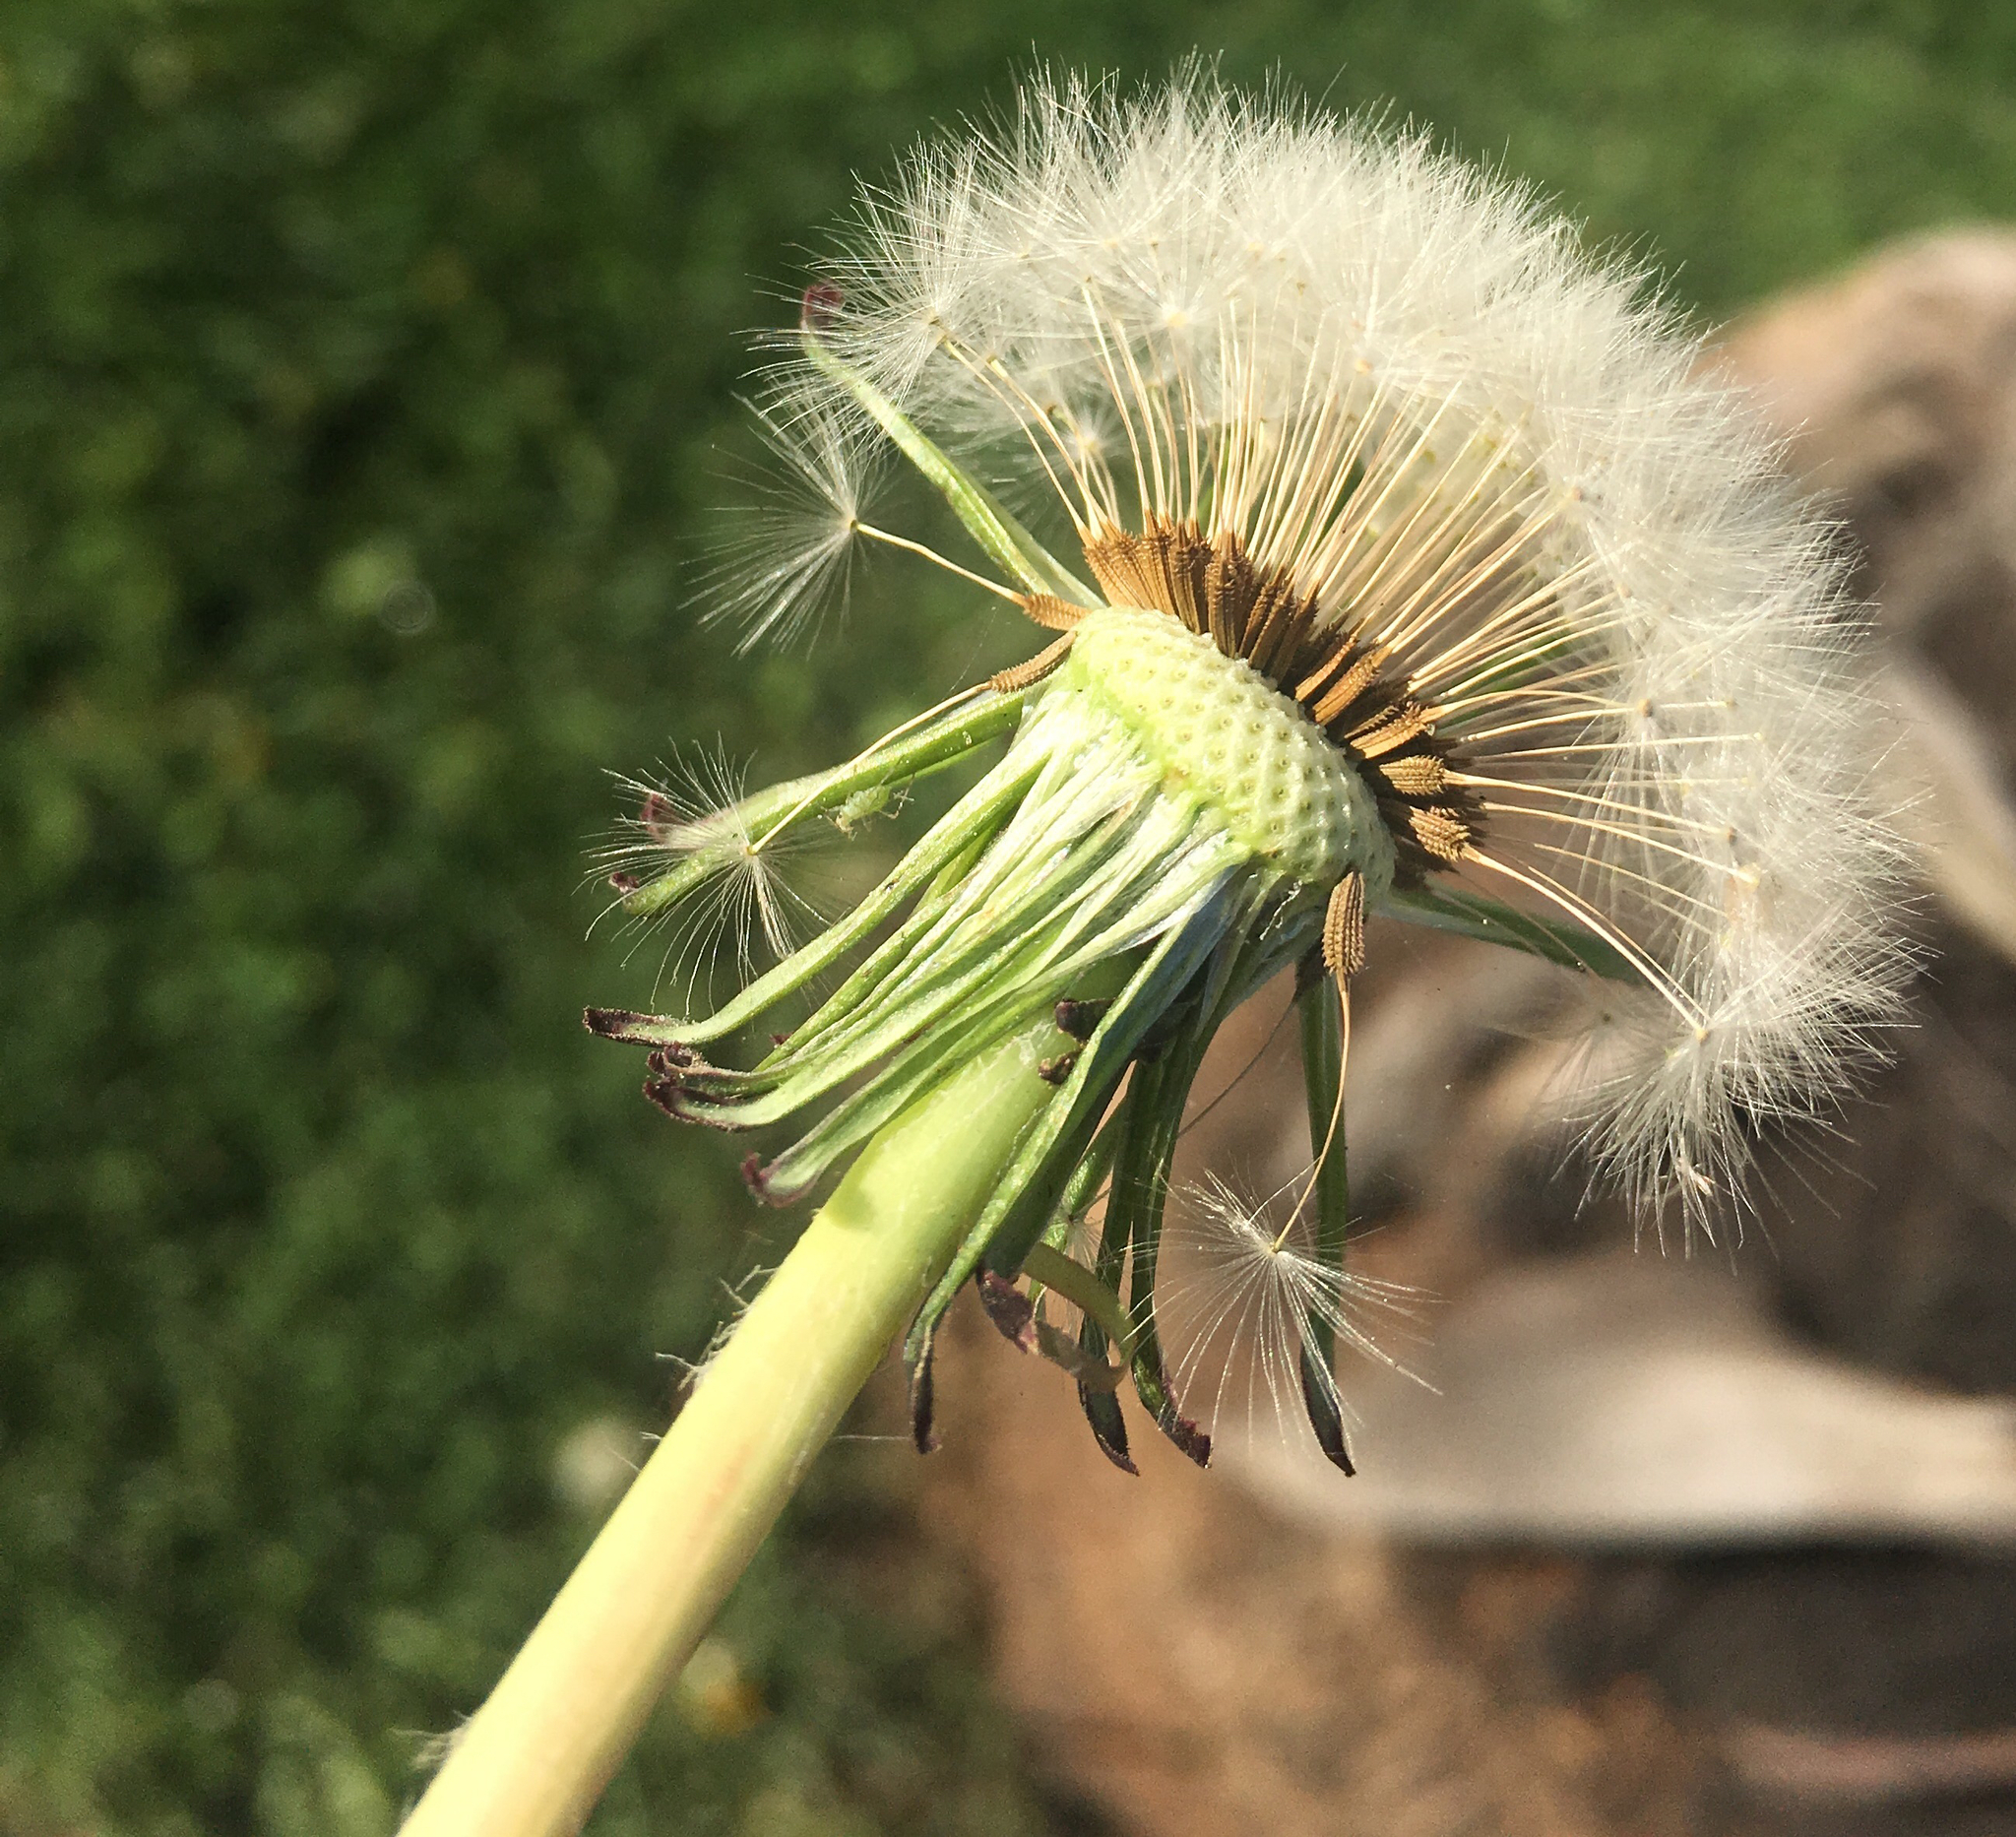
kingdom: Plantae
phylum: Tracheophyta
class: Magnoliopsida
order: Asterales
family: Asteraceae
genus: Taraxacum
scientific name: Taraxacum officinale
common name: Common dandelion
